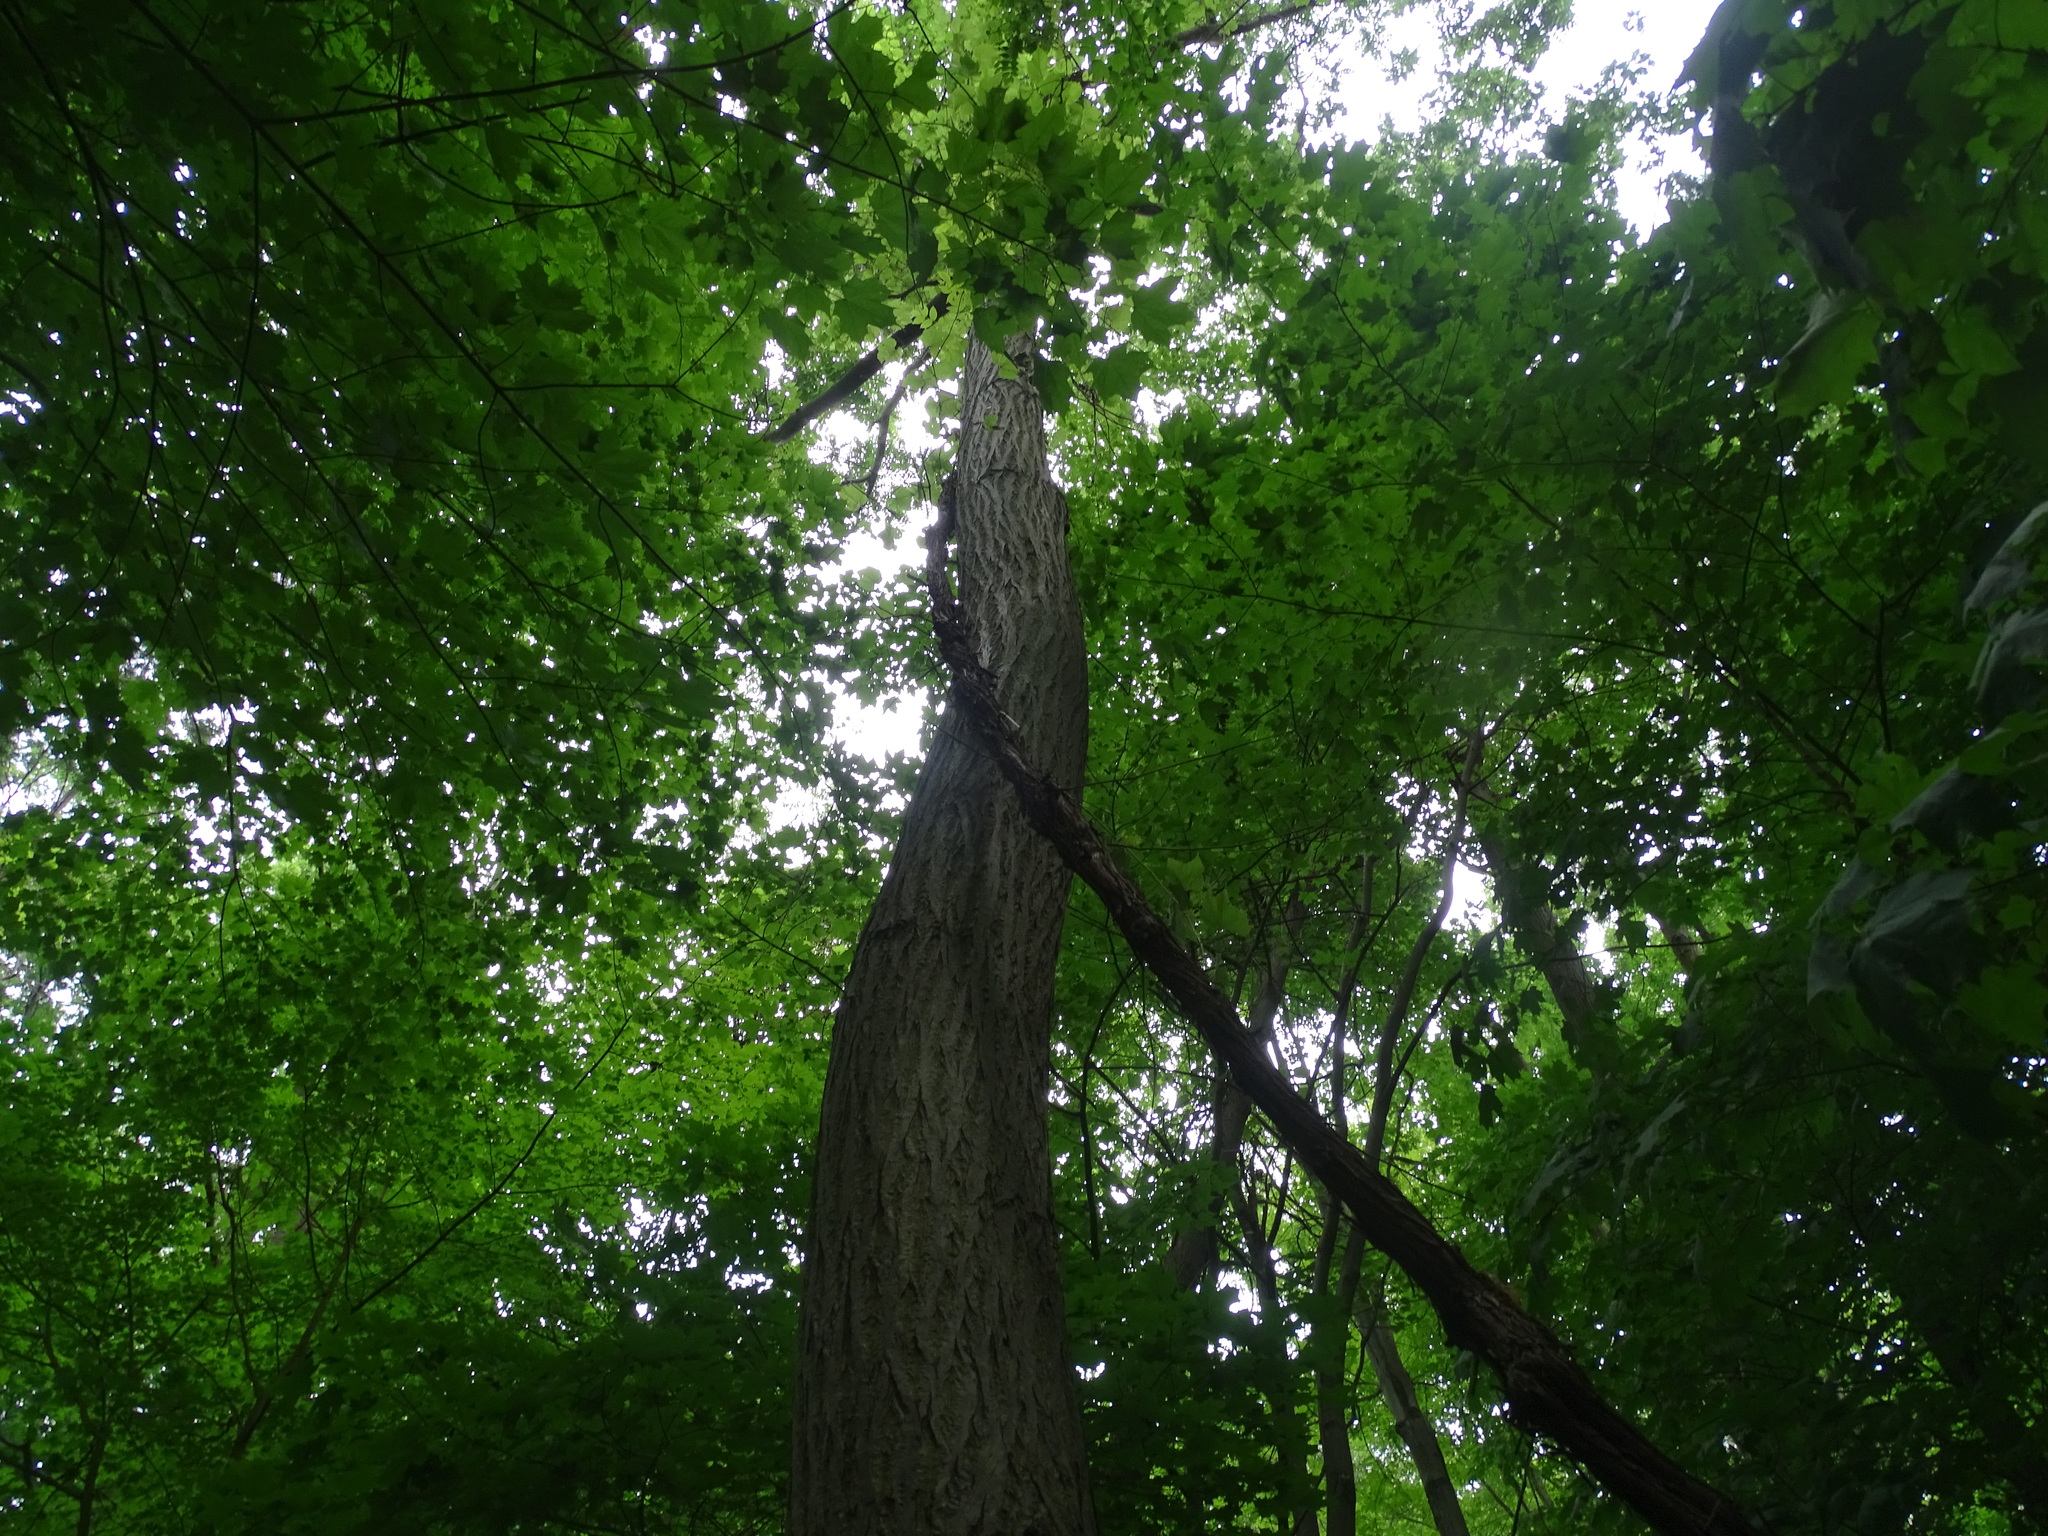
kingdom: Plantae
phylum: Tracheophyta
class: Magnoliopsida
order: Fagales
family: Juglandaceae
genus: Juglans
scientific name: Juglans cinerea
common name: Butternut
